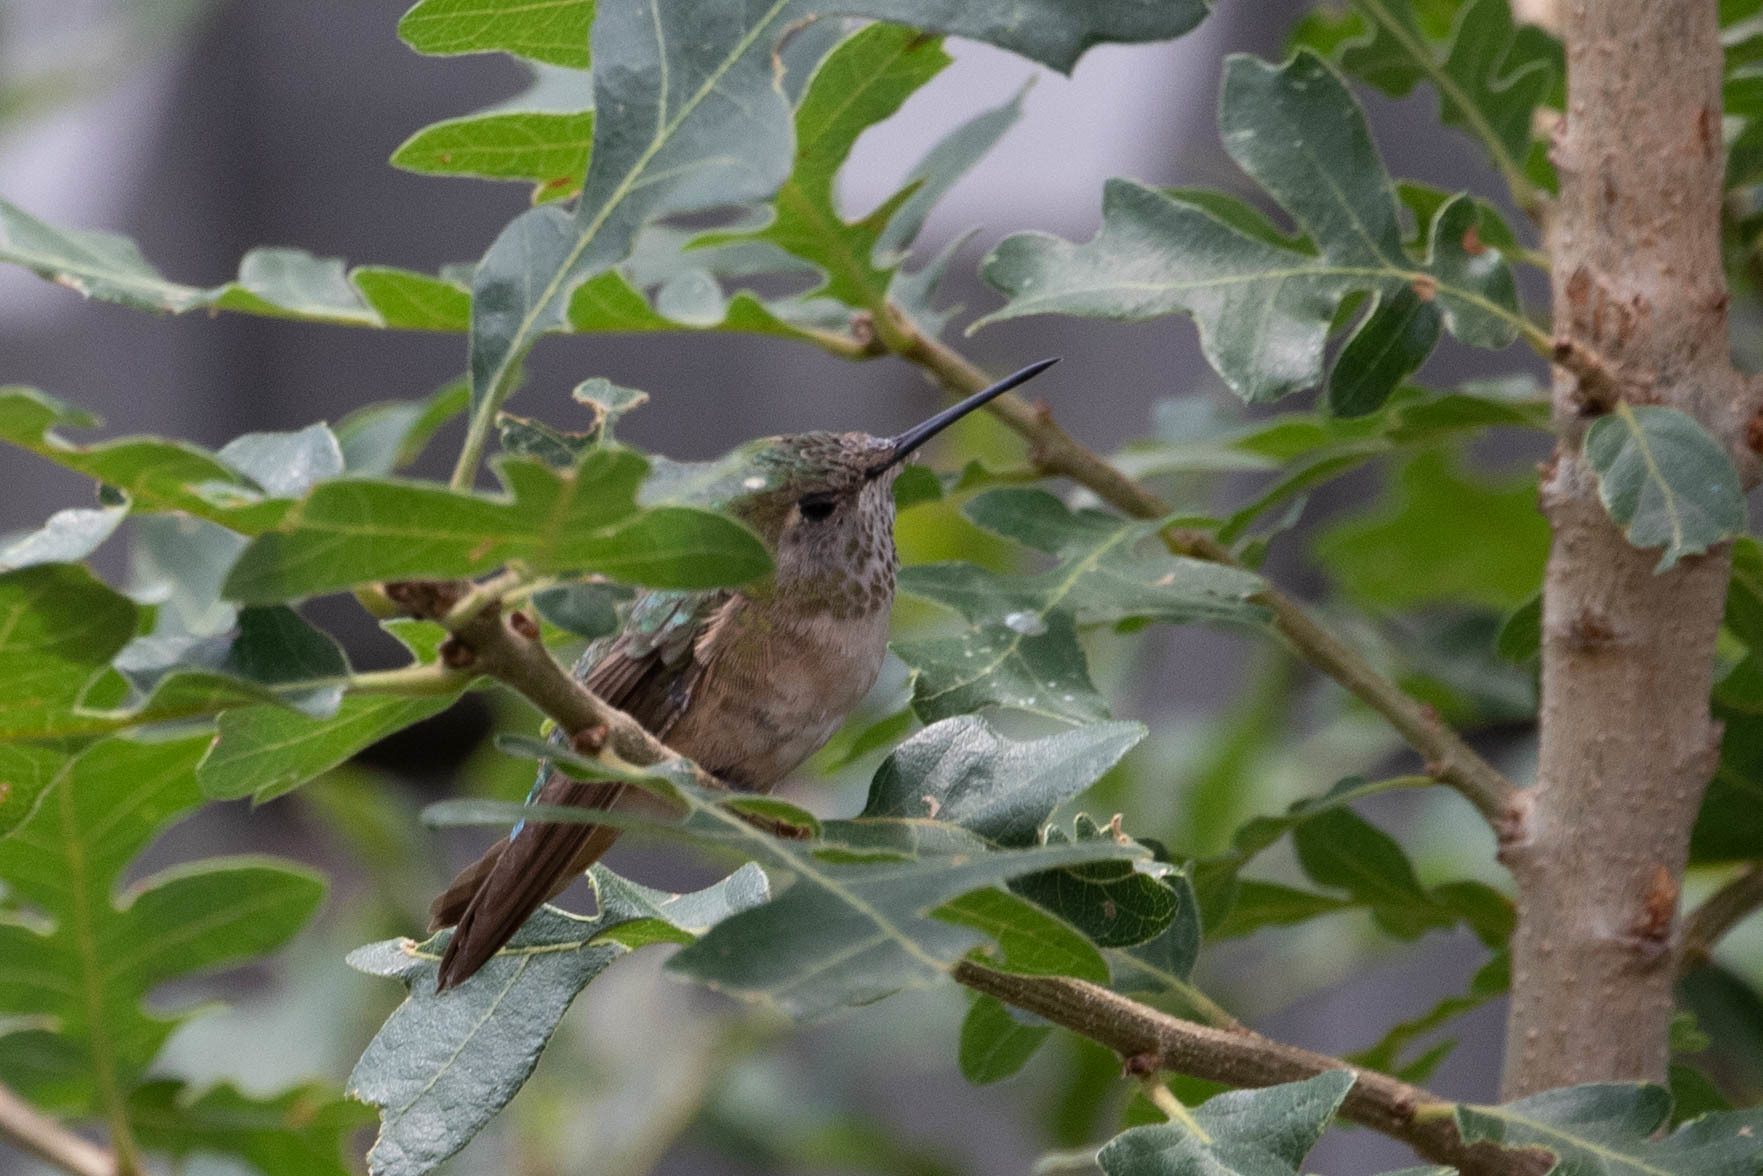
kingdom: Animalia
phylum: Chordata
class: Aves
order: Apodiformes
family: Trochilidae
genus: Selasphorus
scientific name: Selasphorus platycercus
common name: Broad-tailed hummingbird
